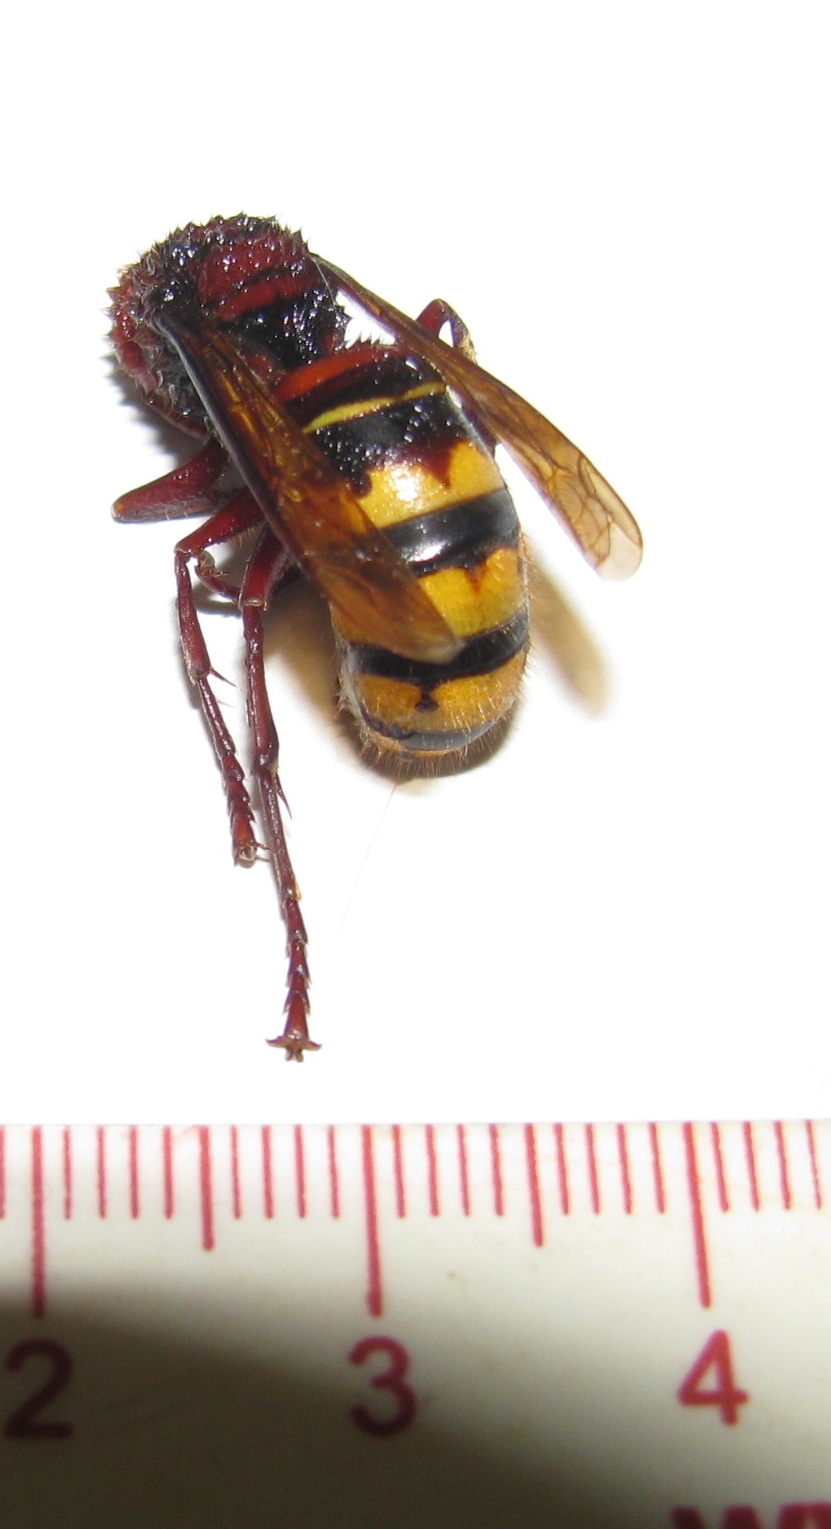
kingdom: Animalia
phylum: Arthropoda
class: Insecta
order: Hymenoptera
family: Vespidae
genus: Vespa
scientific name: Vespa crabro
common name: Hornet
